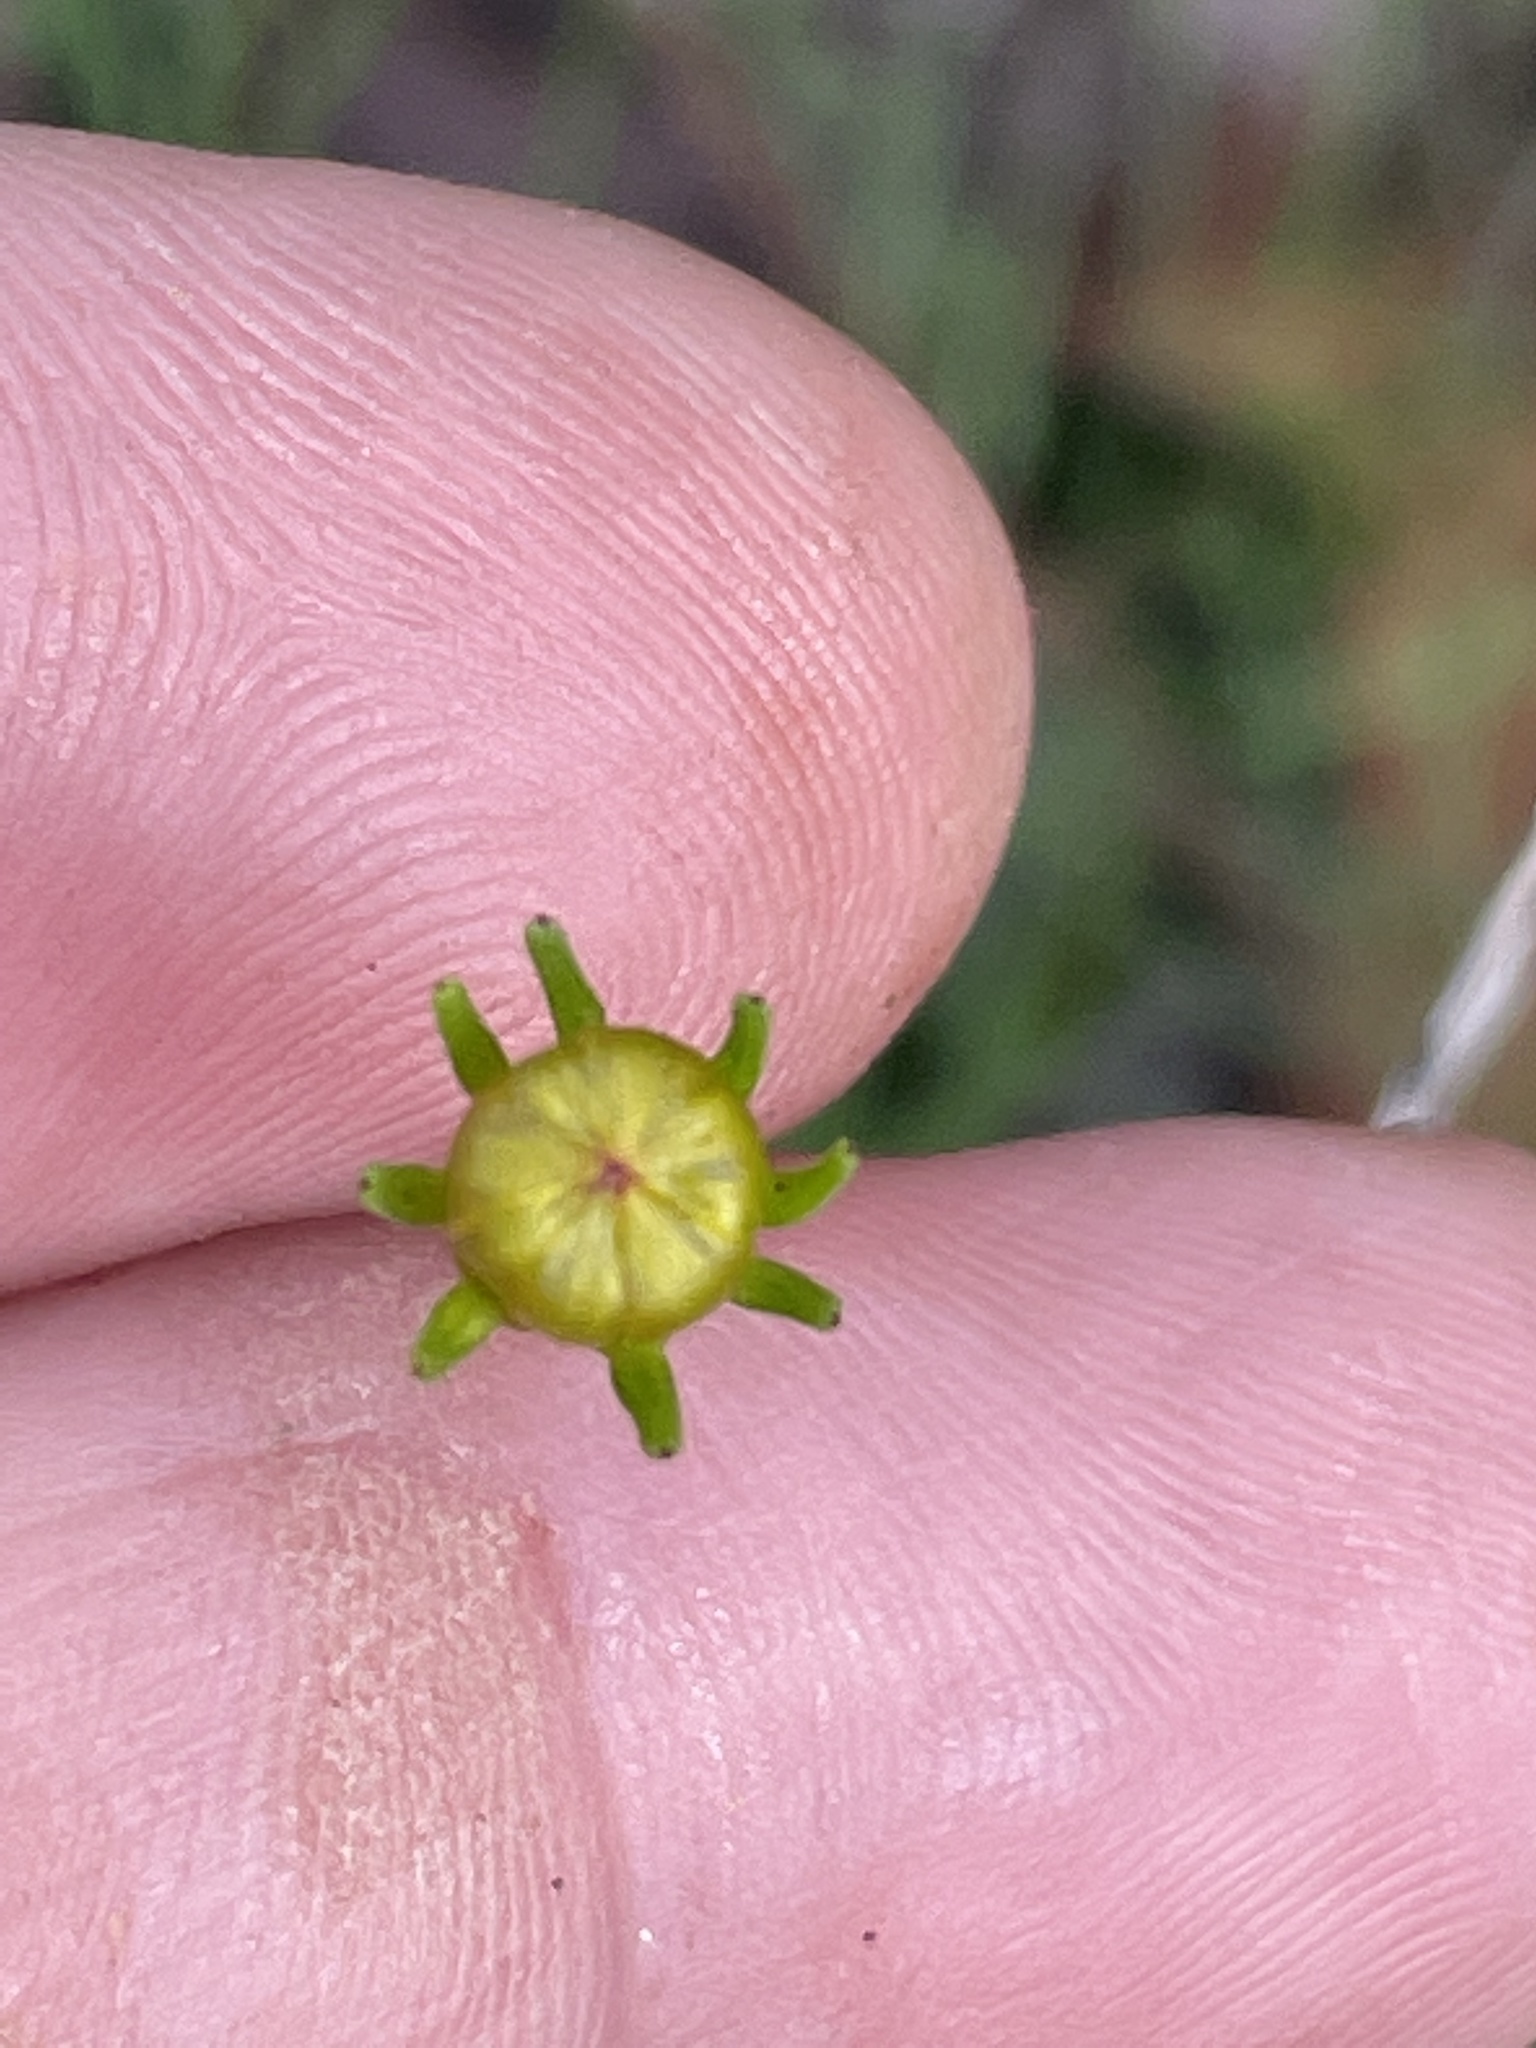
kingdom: Plantae
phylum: Tracheophyta
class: Magnoliopsida
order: Asterales
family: Asteraceae
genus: Coreopsis
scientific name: Coreopsis verticillata
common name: Whorled tickseed
